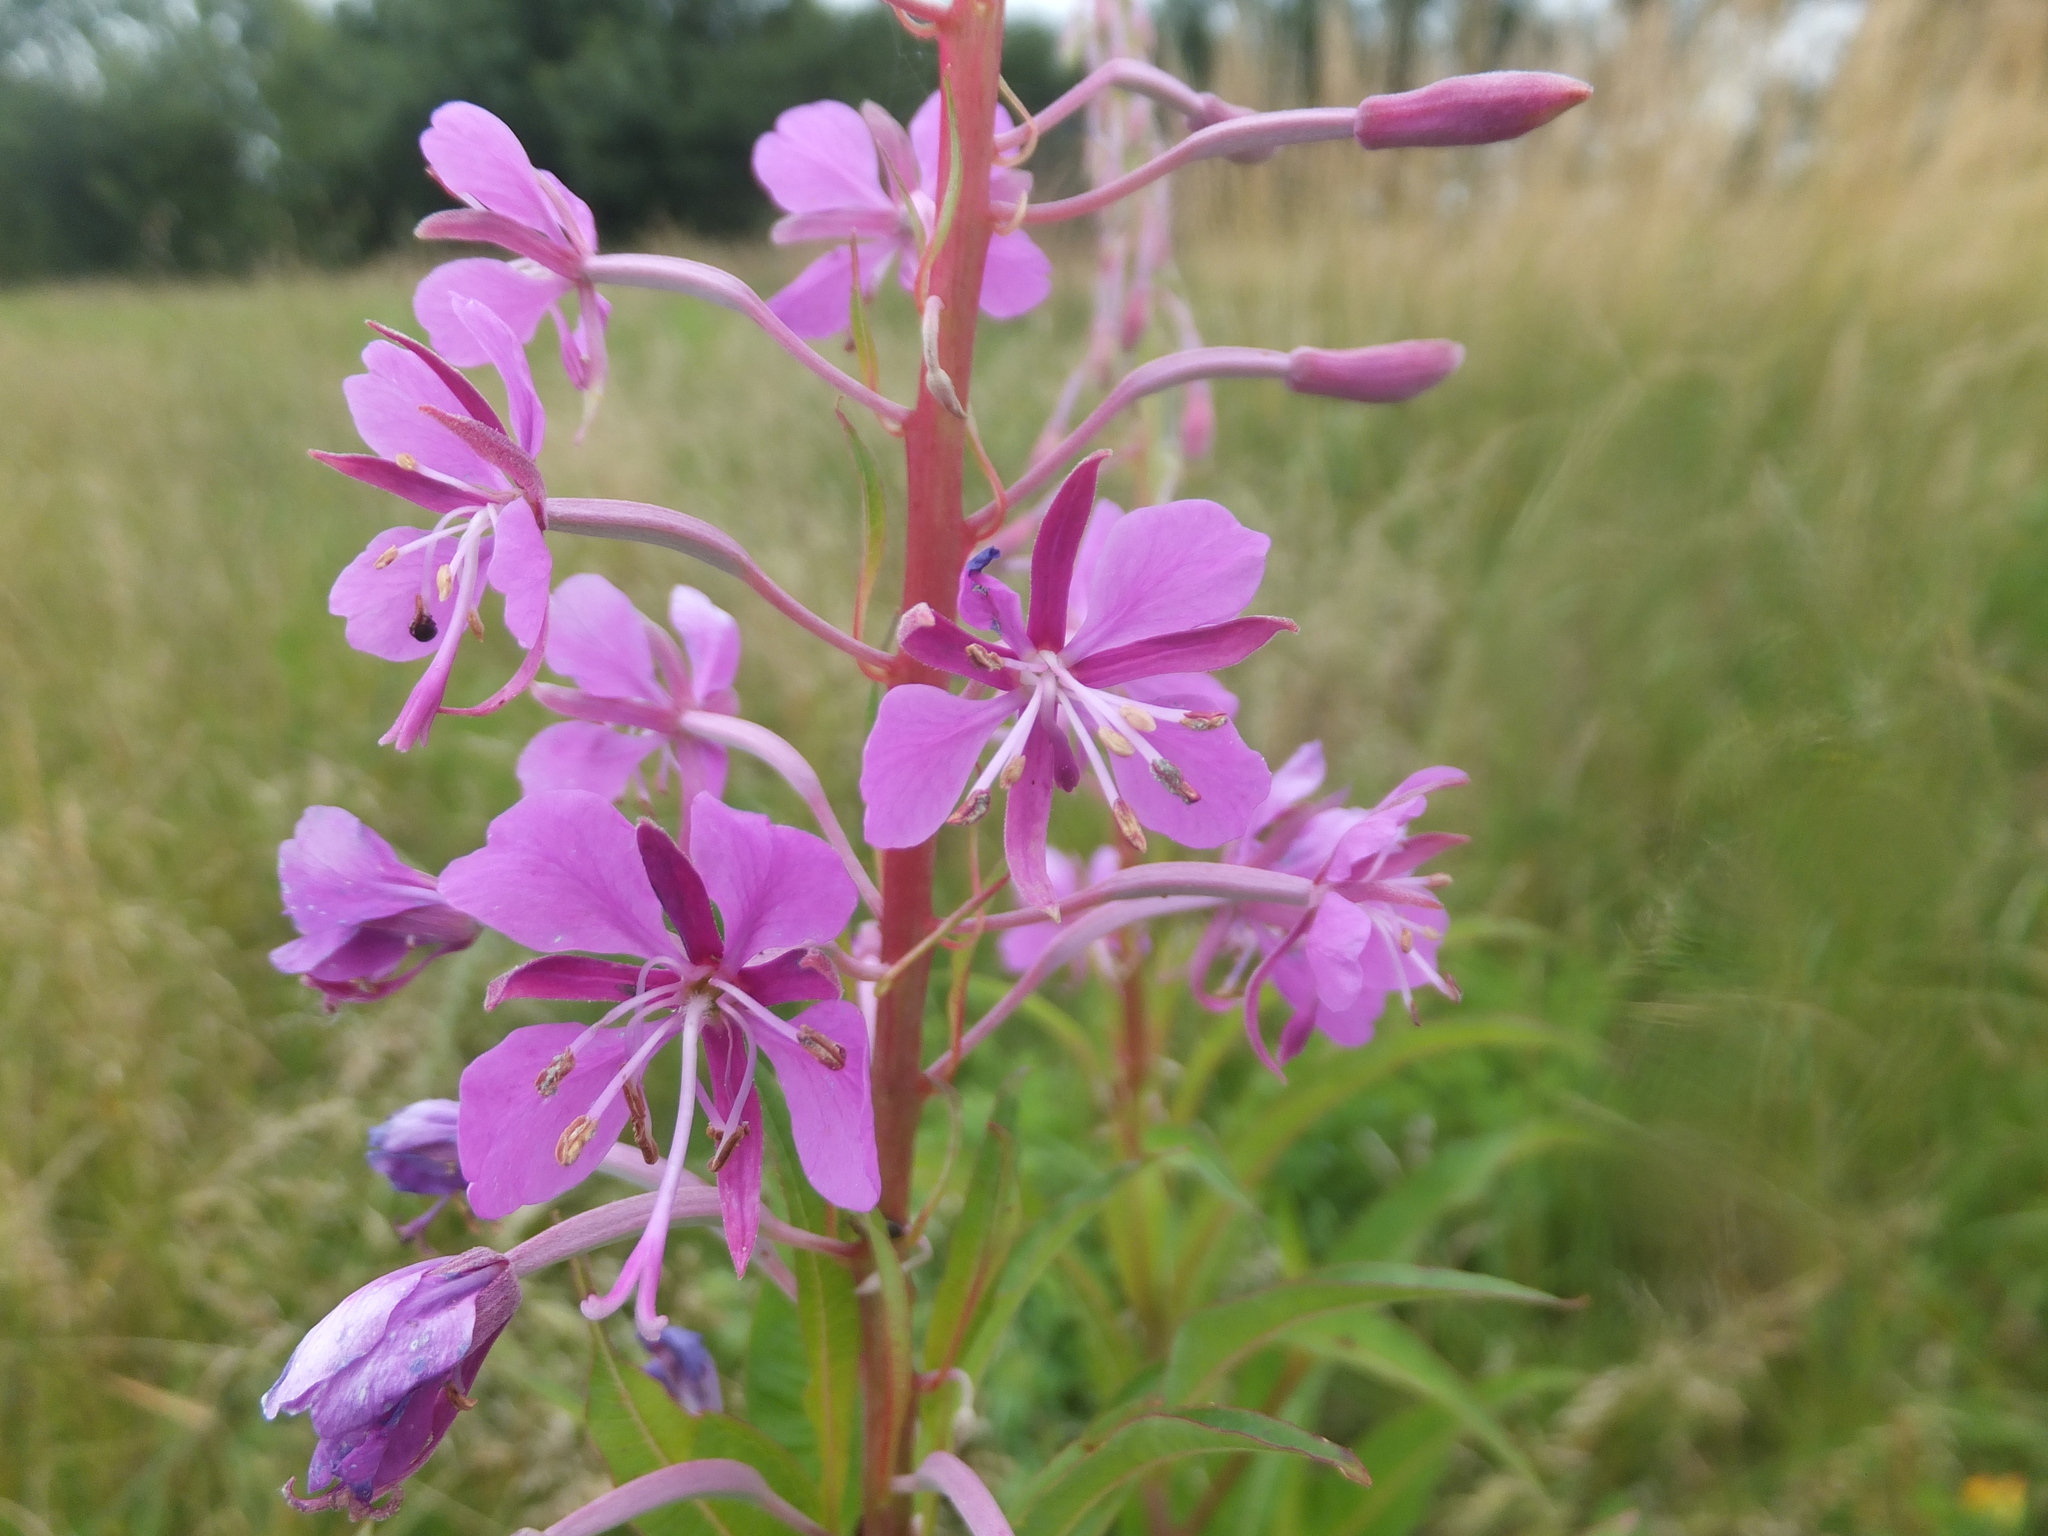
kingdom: Plantae
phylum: Tracheophyta
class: Magnoliopsida
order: Myrtales
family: Onagraceae
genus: Chamaenerion
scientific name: Chamaenerion angustifolium
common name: Fireweed
